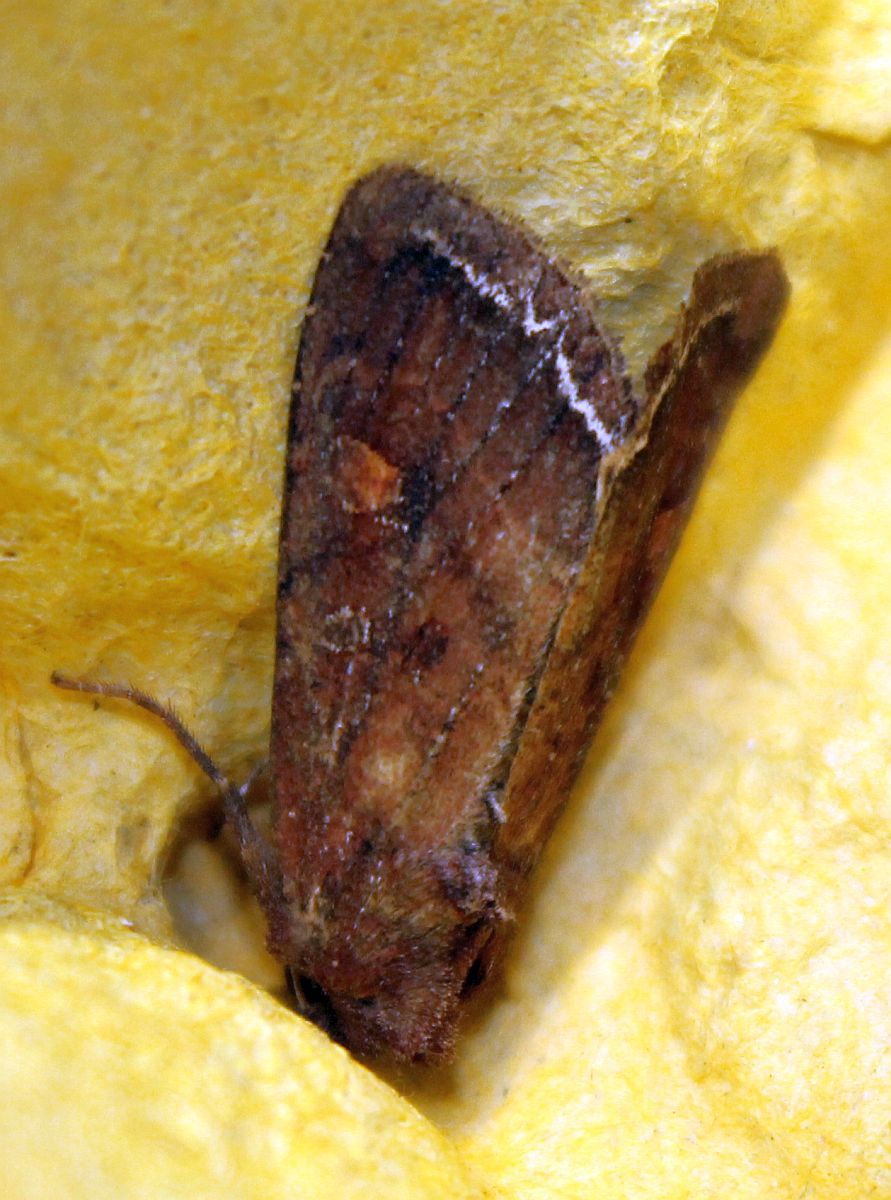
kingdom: Animalia
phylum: Arthropoda
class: Insecta
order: Lepidoptera
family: Noctuidae
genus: Lacanobia
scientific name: Lacanobia oleracea
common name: Bright-line brown-eye
